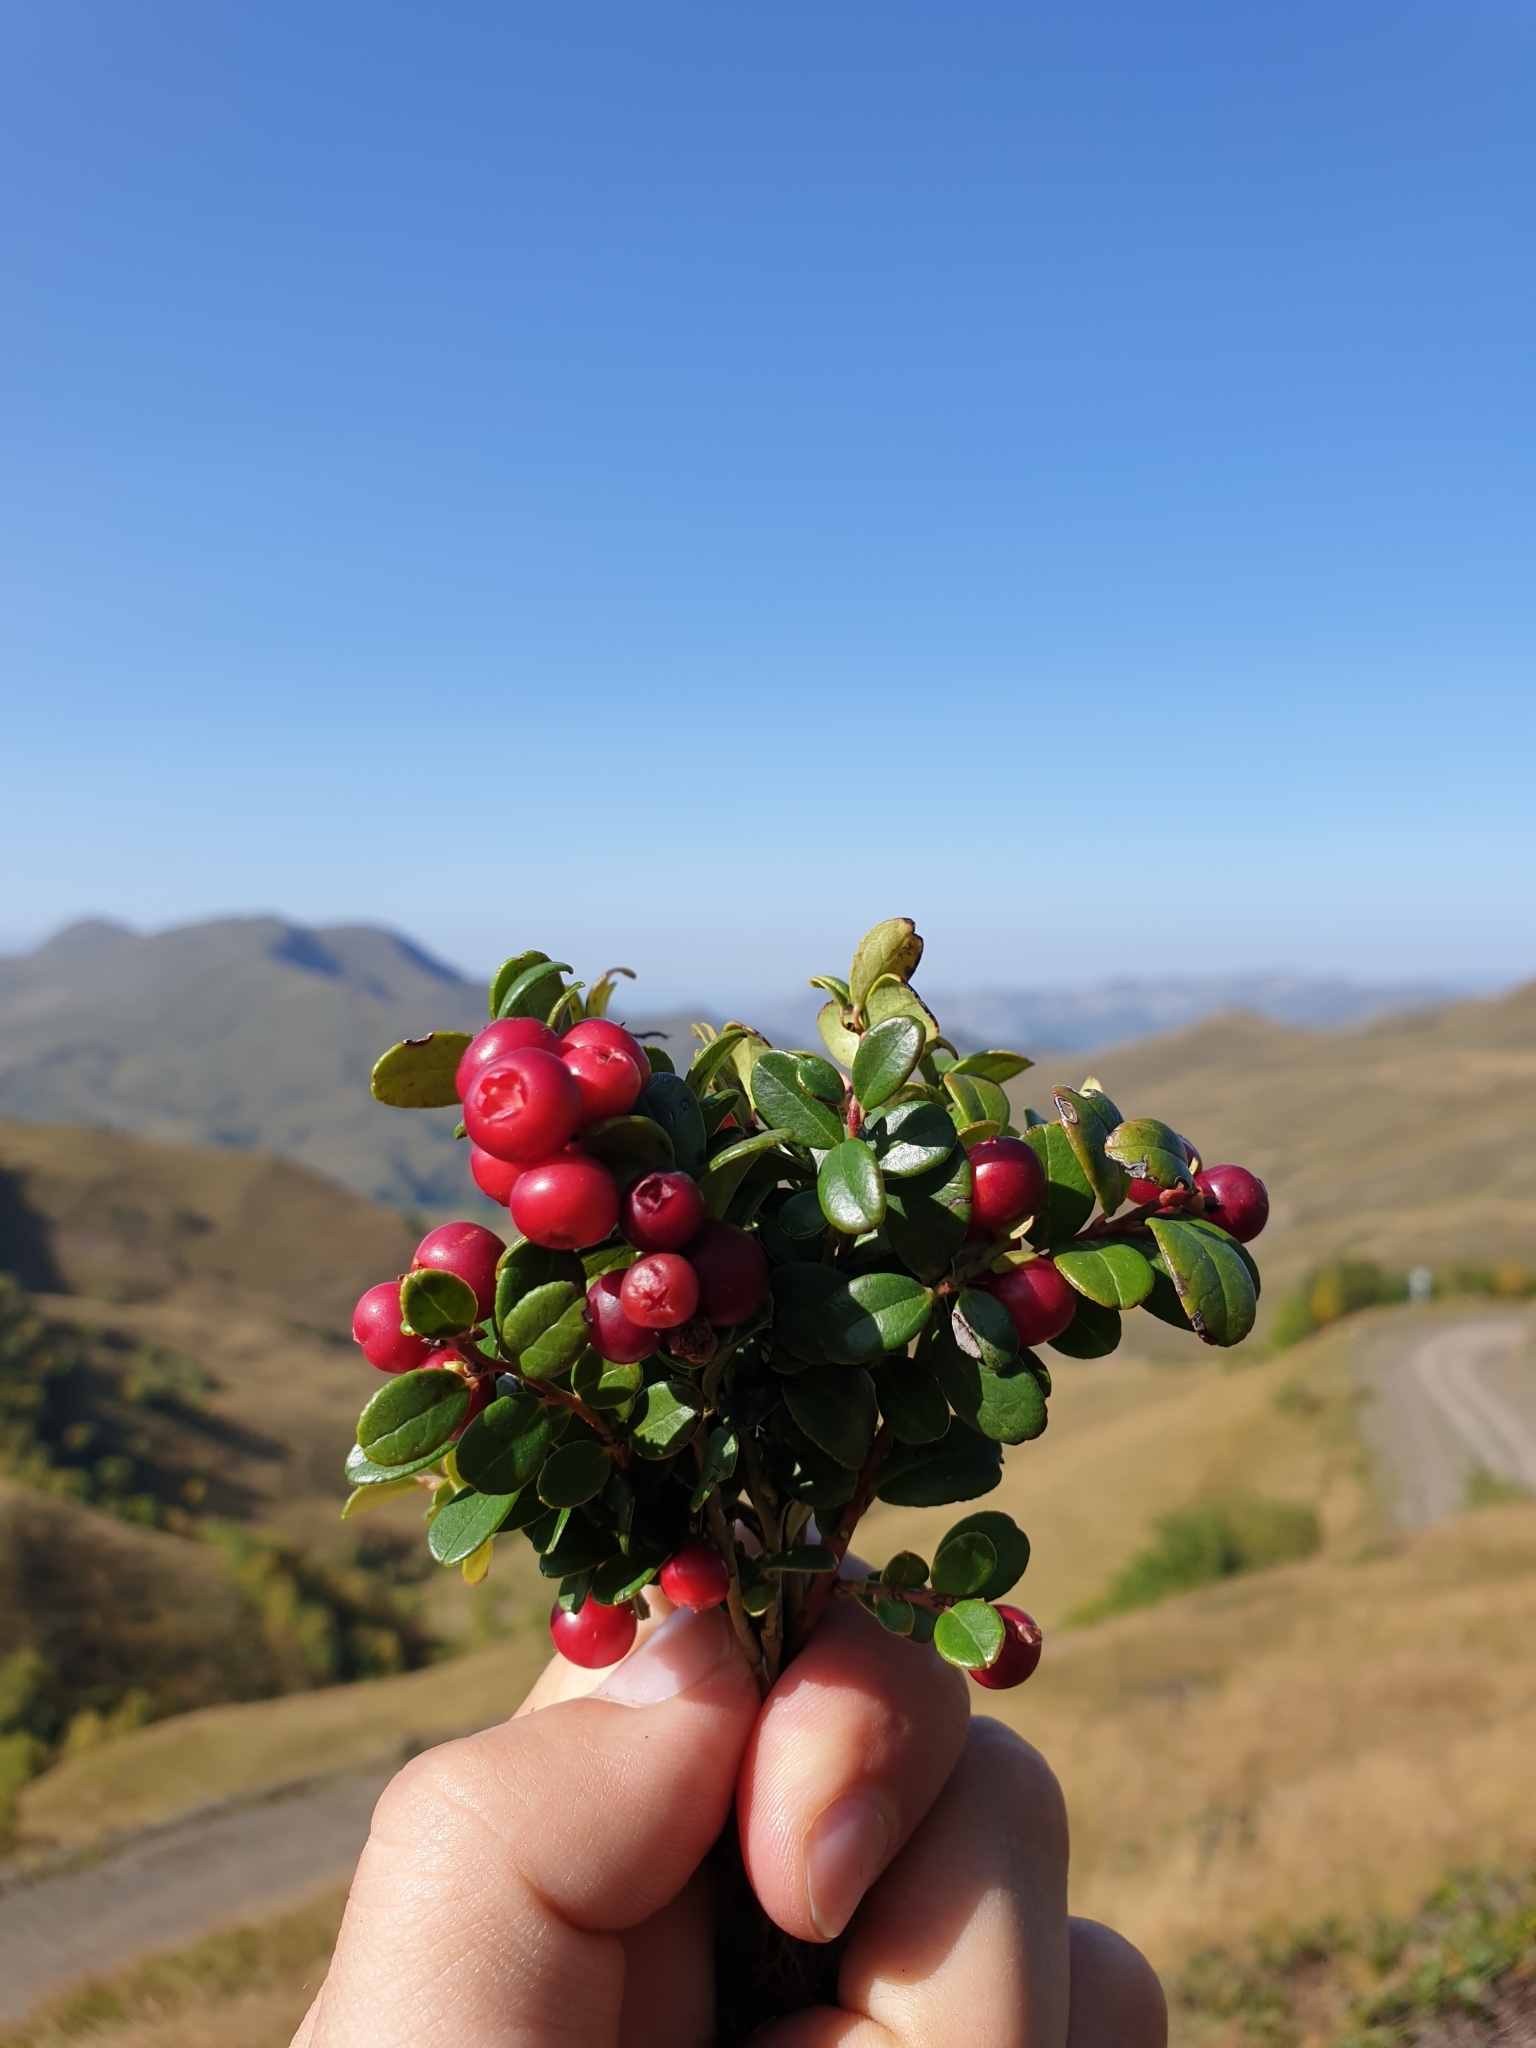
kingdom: Plantae
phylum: Tracheophyta
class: Magnoliopsida
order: Ericales
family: Ericaceae
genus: Vaccinium
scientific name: Vaccinium vitis-idaea
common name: Cowberry
